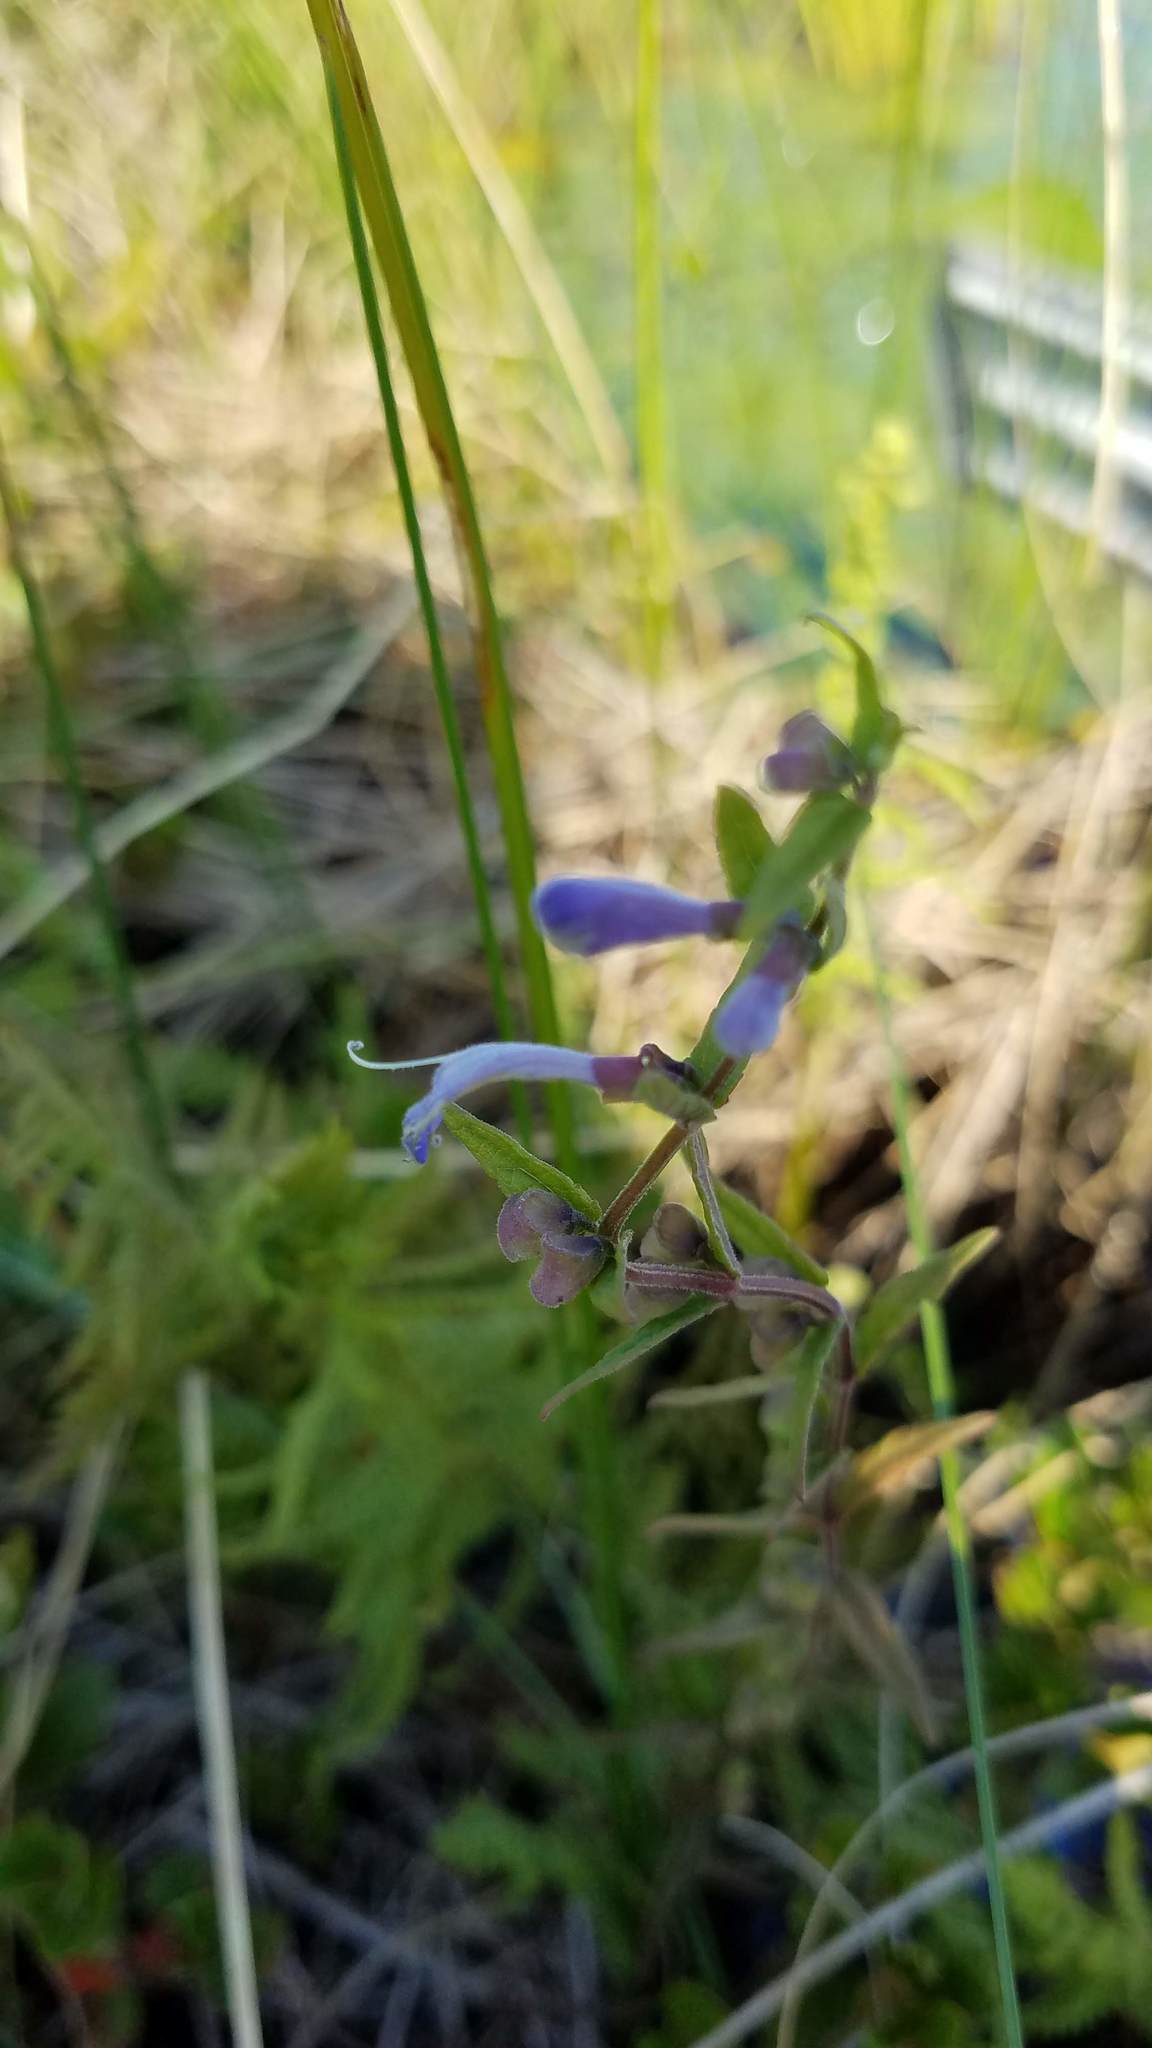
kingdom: Plantae
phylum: Tracheophyta
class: Magnoliopsida
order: Lamiales
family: Lamiaceae
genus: Scutellaria
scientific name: Scutellaria galericulata
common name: Skullcap
